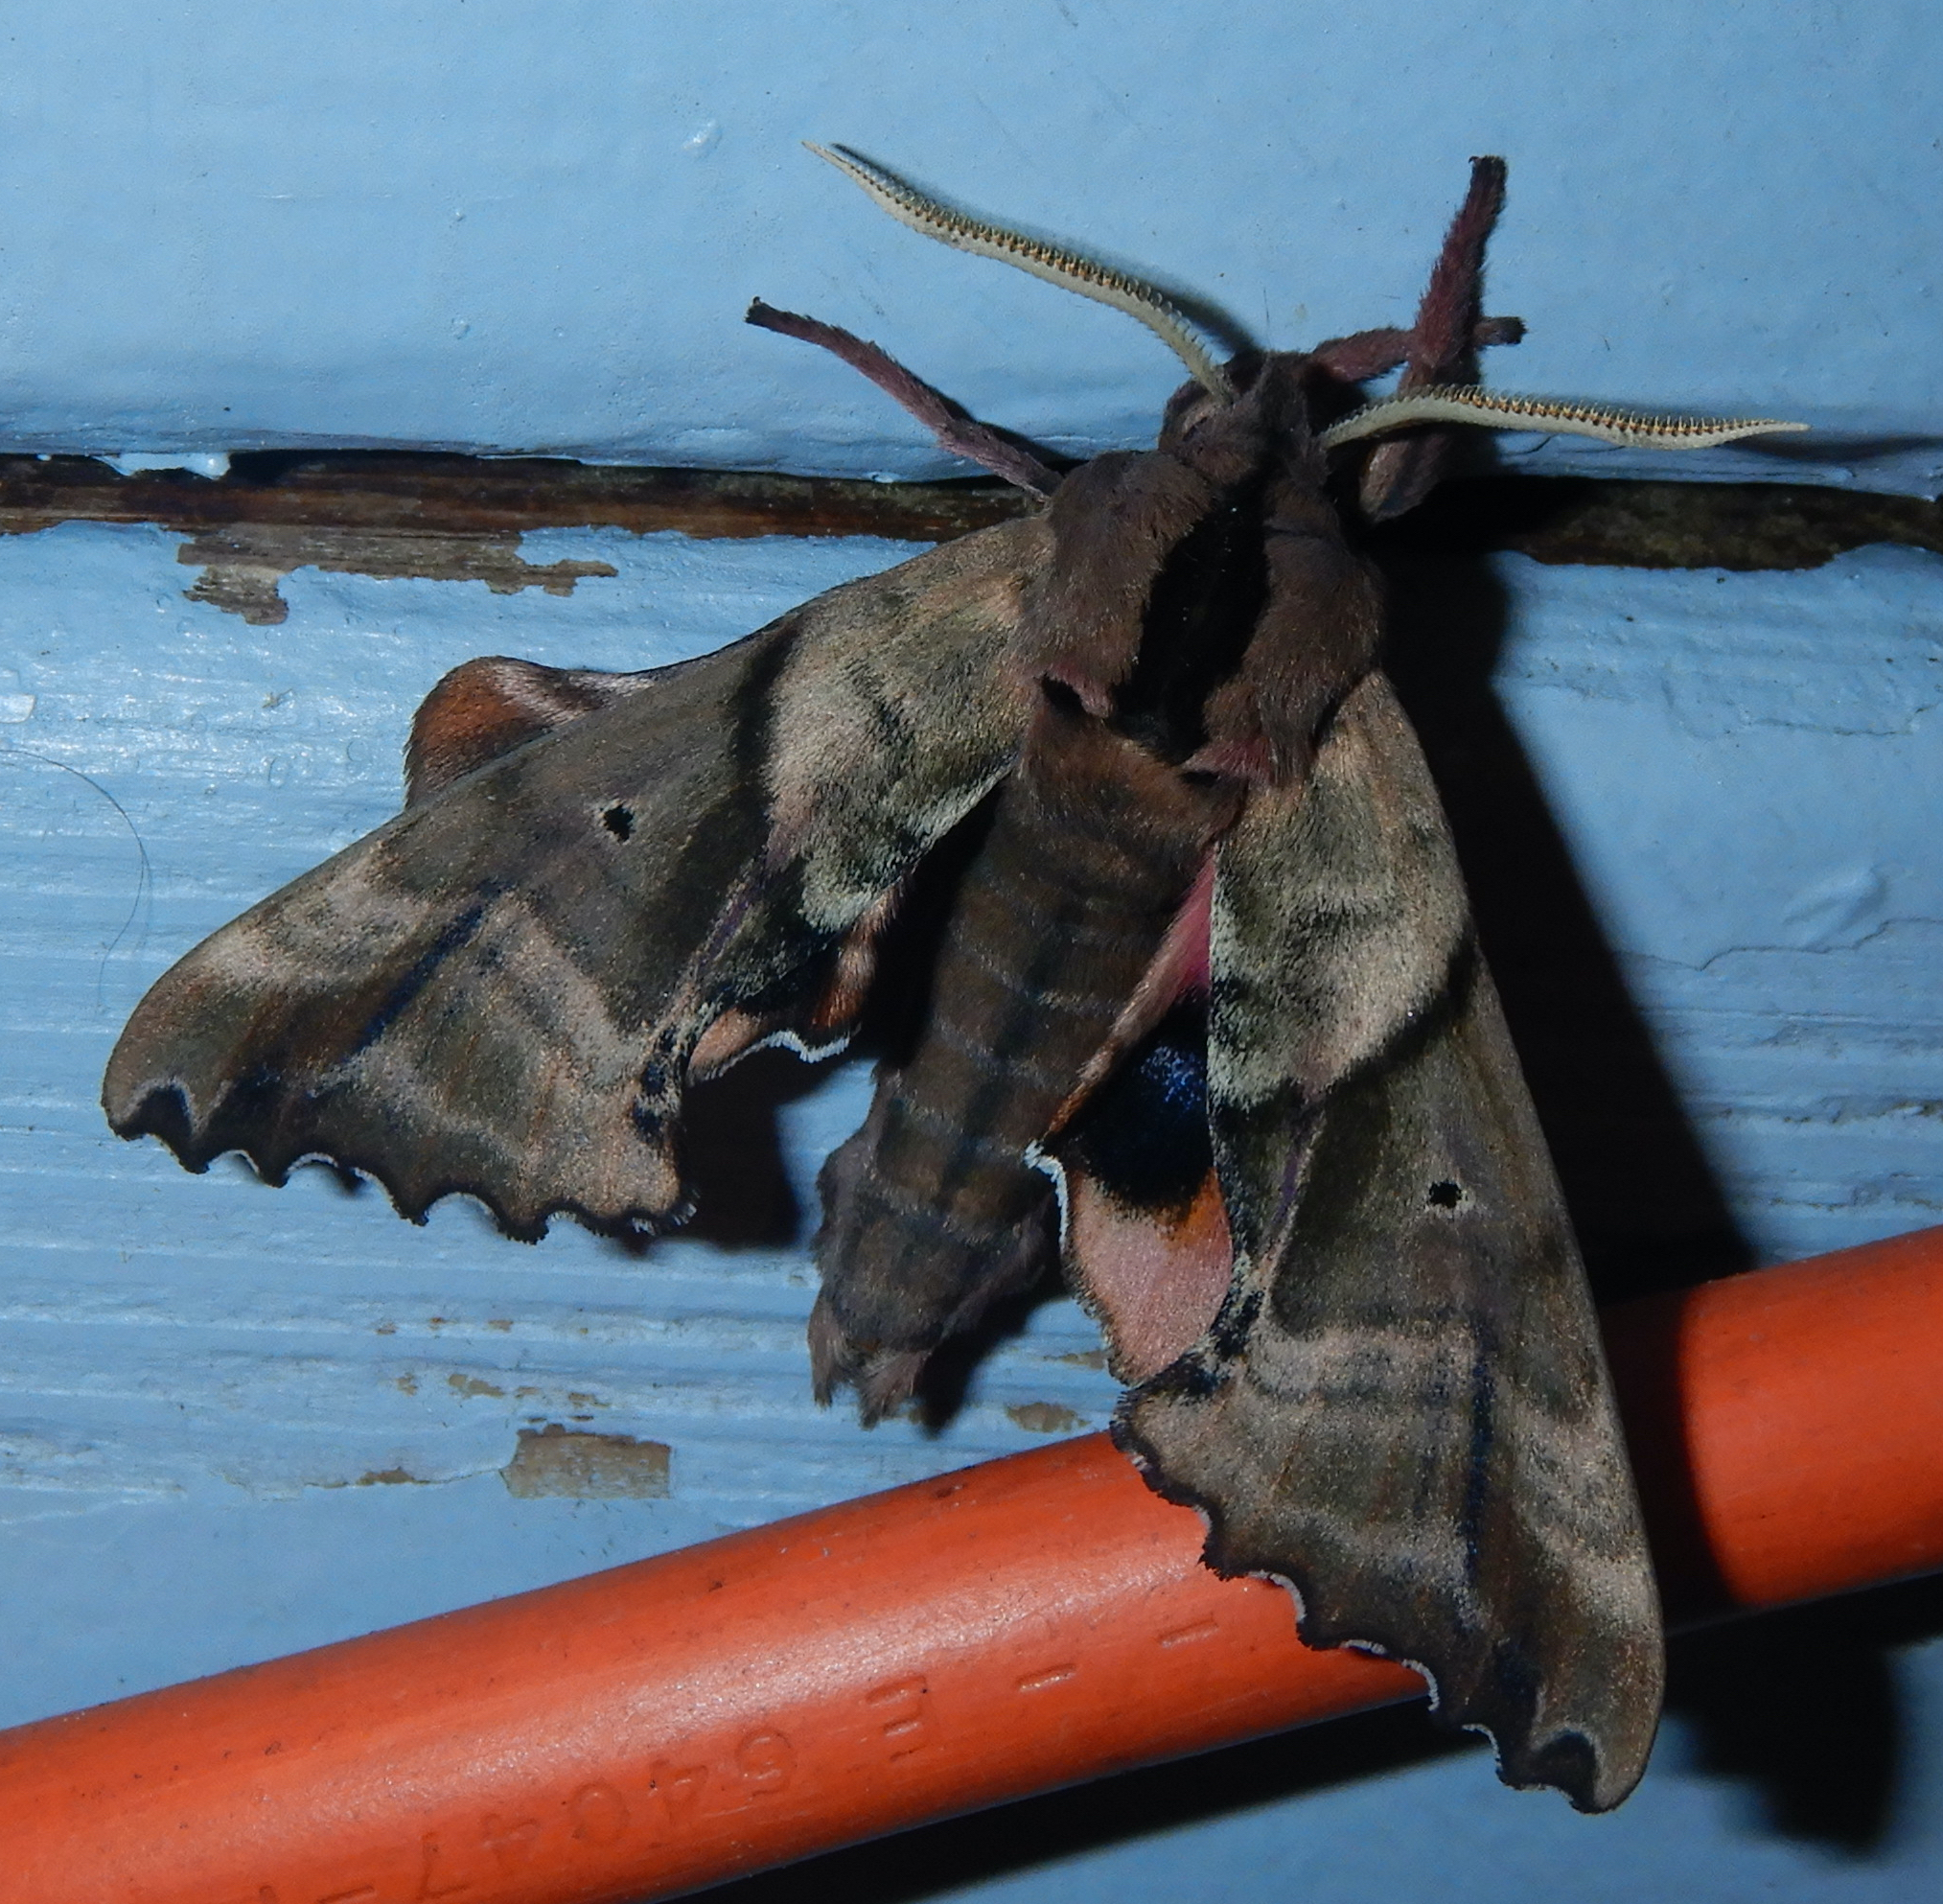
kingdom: Animalia
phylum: Arthropoda
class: Insecta
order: Lepidoptera
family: Sphingidae
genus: Paonias
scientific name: Paonias excaecata
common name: Blind-eyed sphinx
